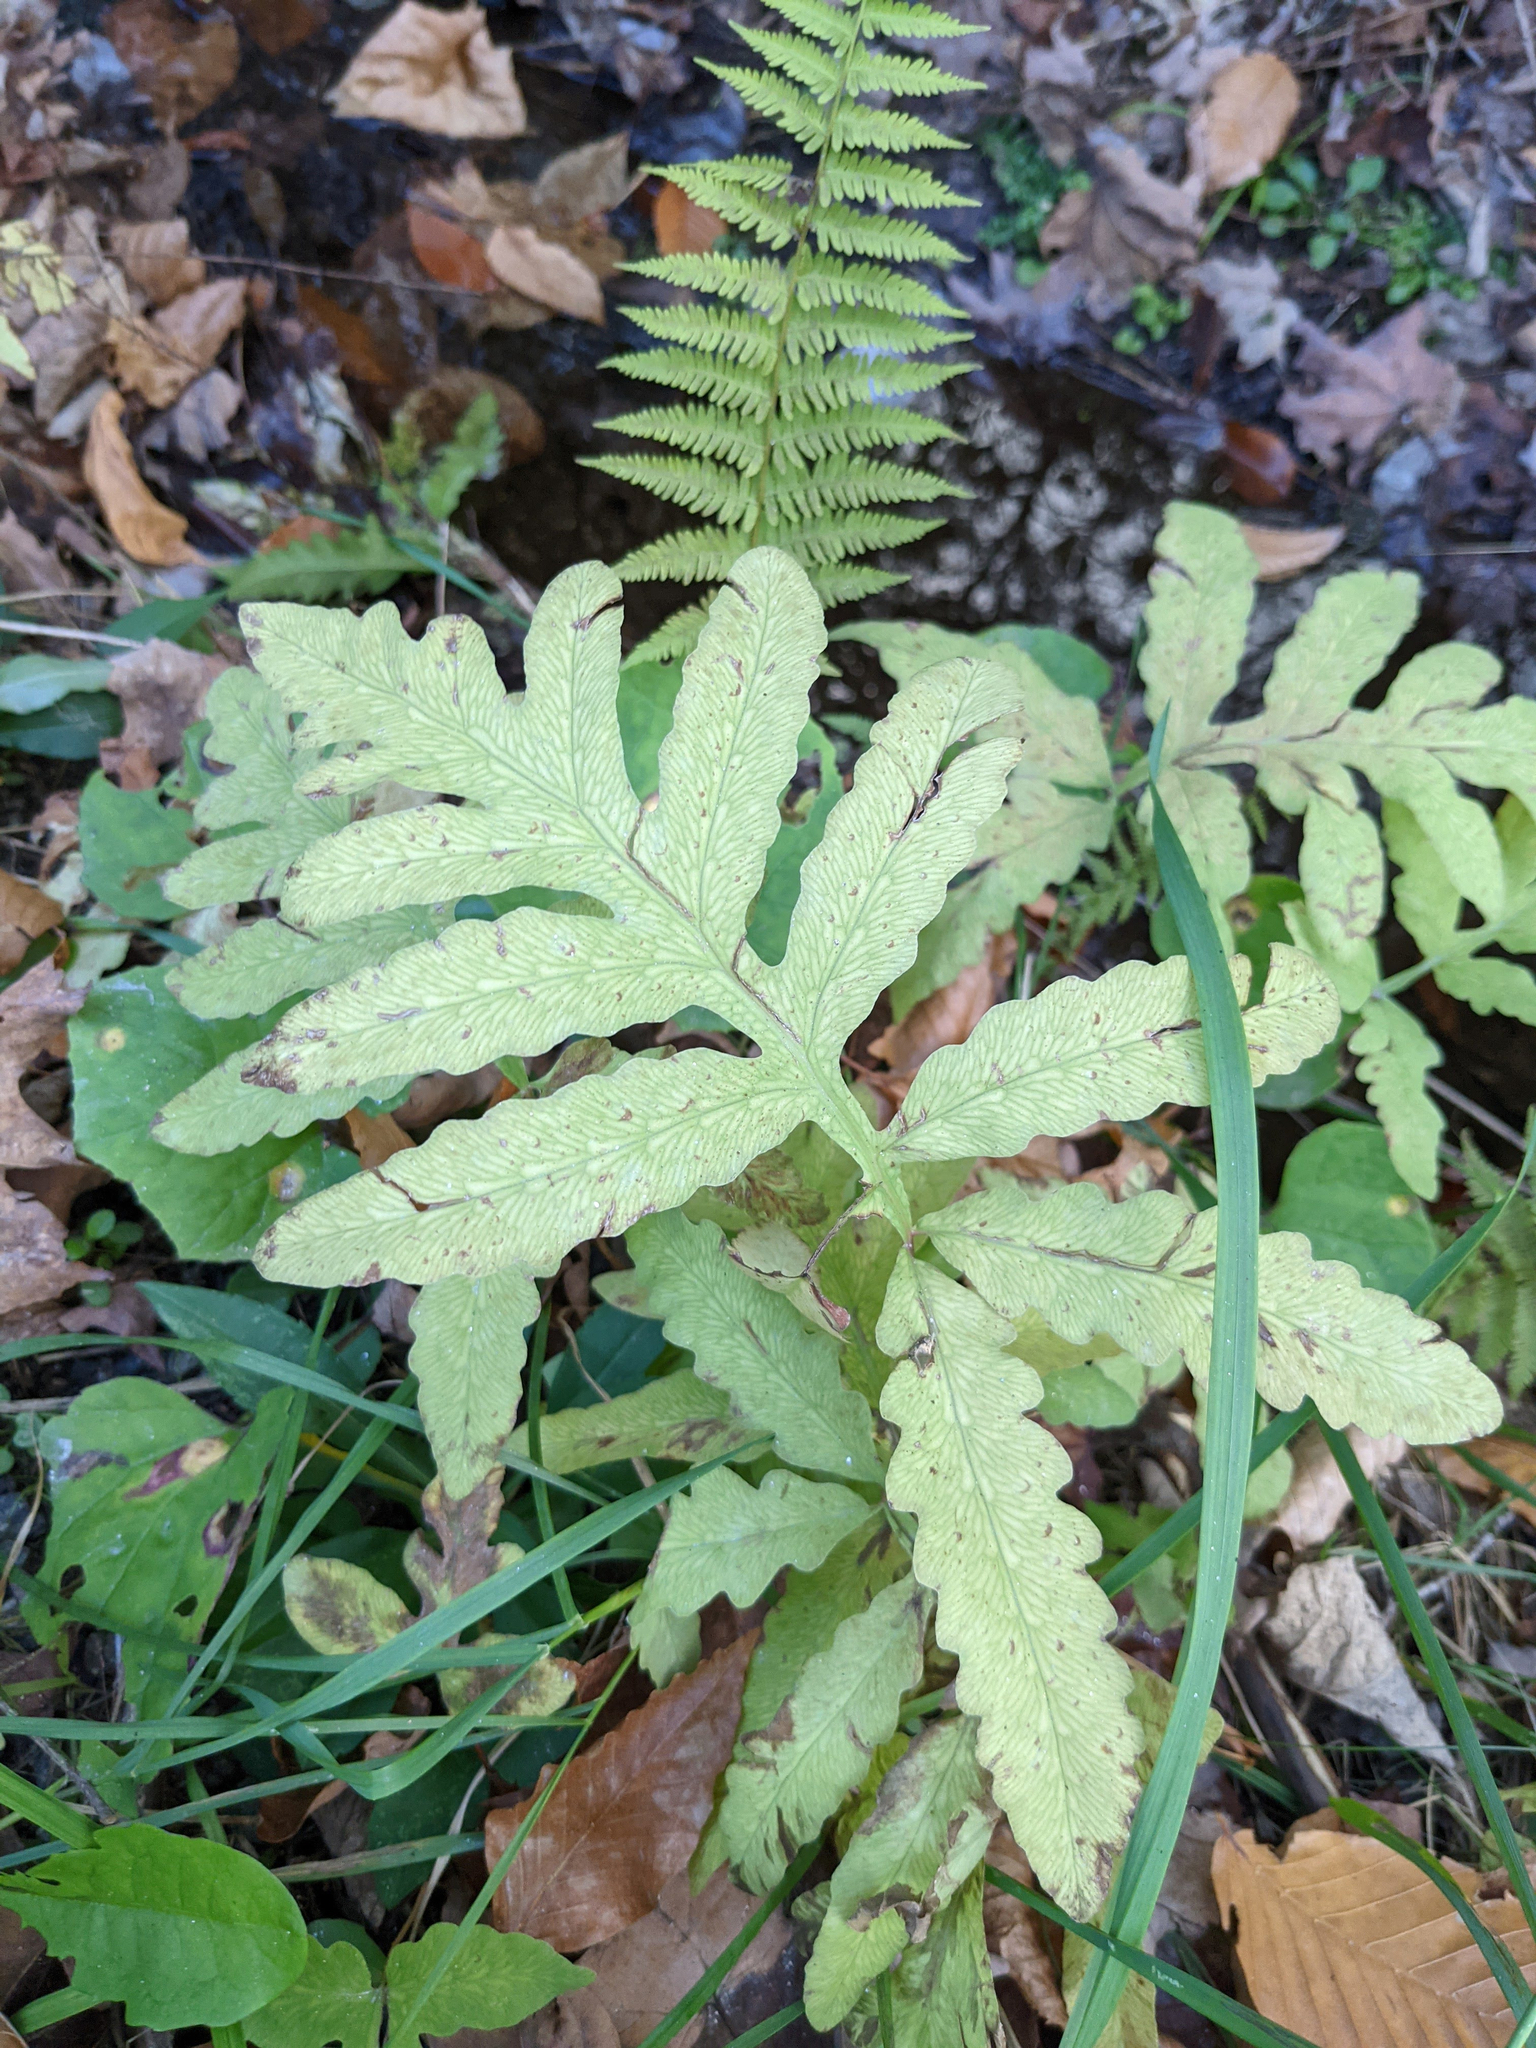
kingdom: Plantae
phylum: Tracheophyta
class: Polypodiopsida
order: Polypodiales
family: Onocleaceae
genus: Onoclea
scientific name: Onoclea sensibilis
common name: Sensitive fern
